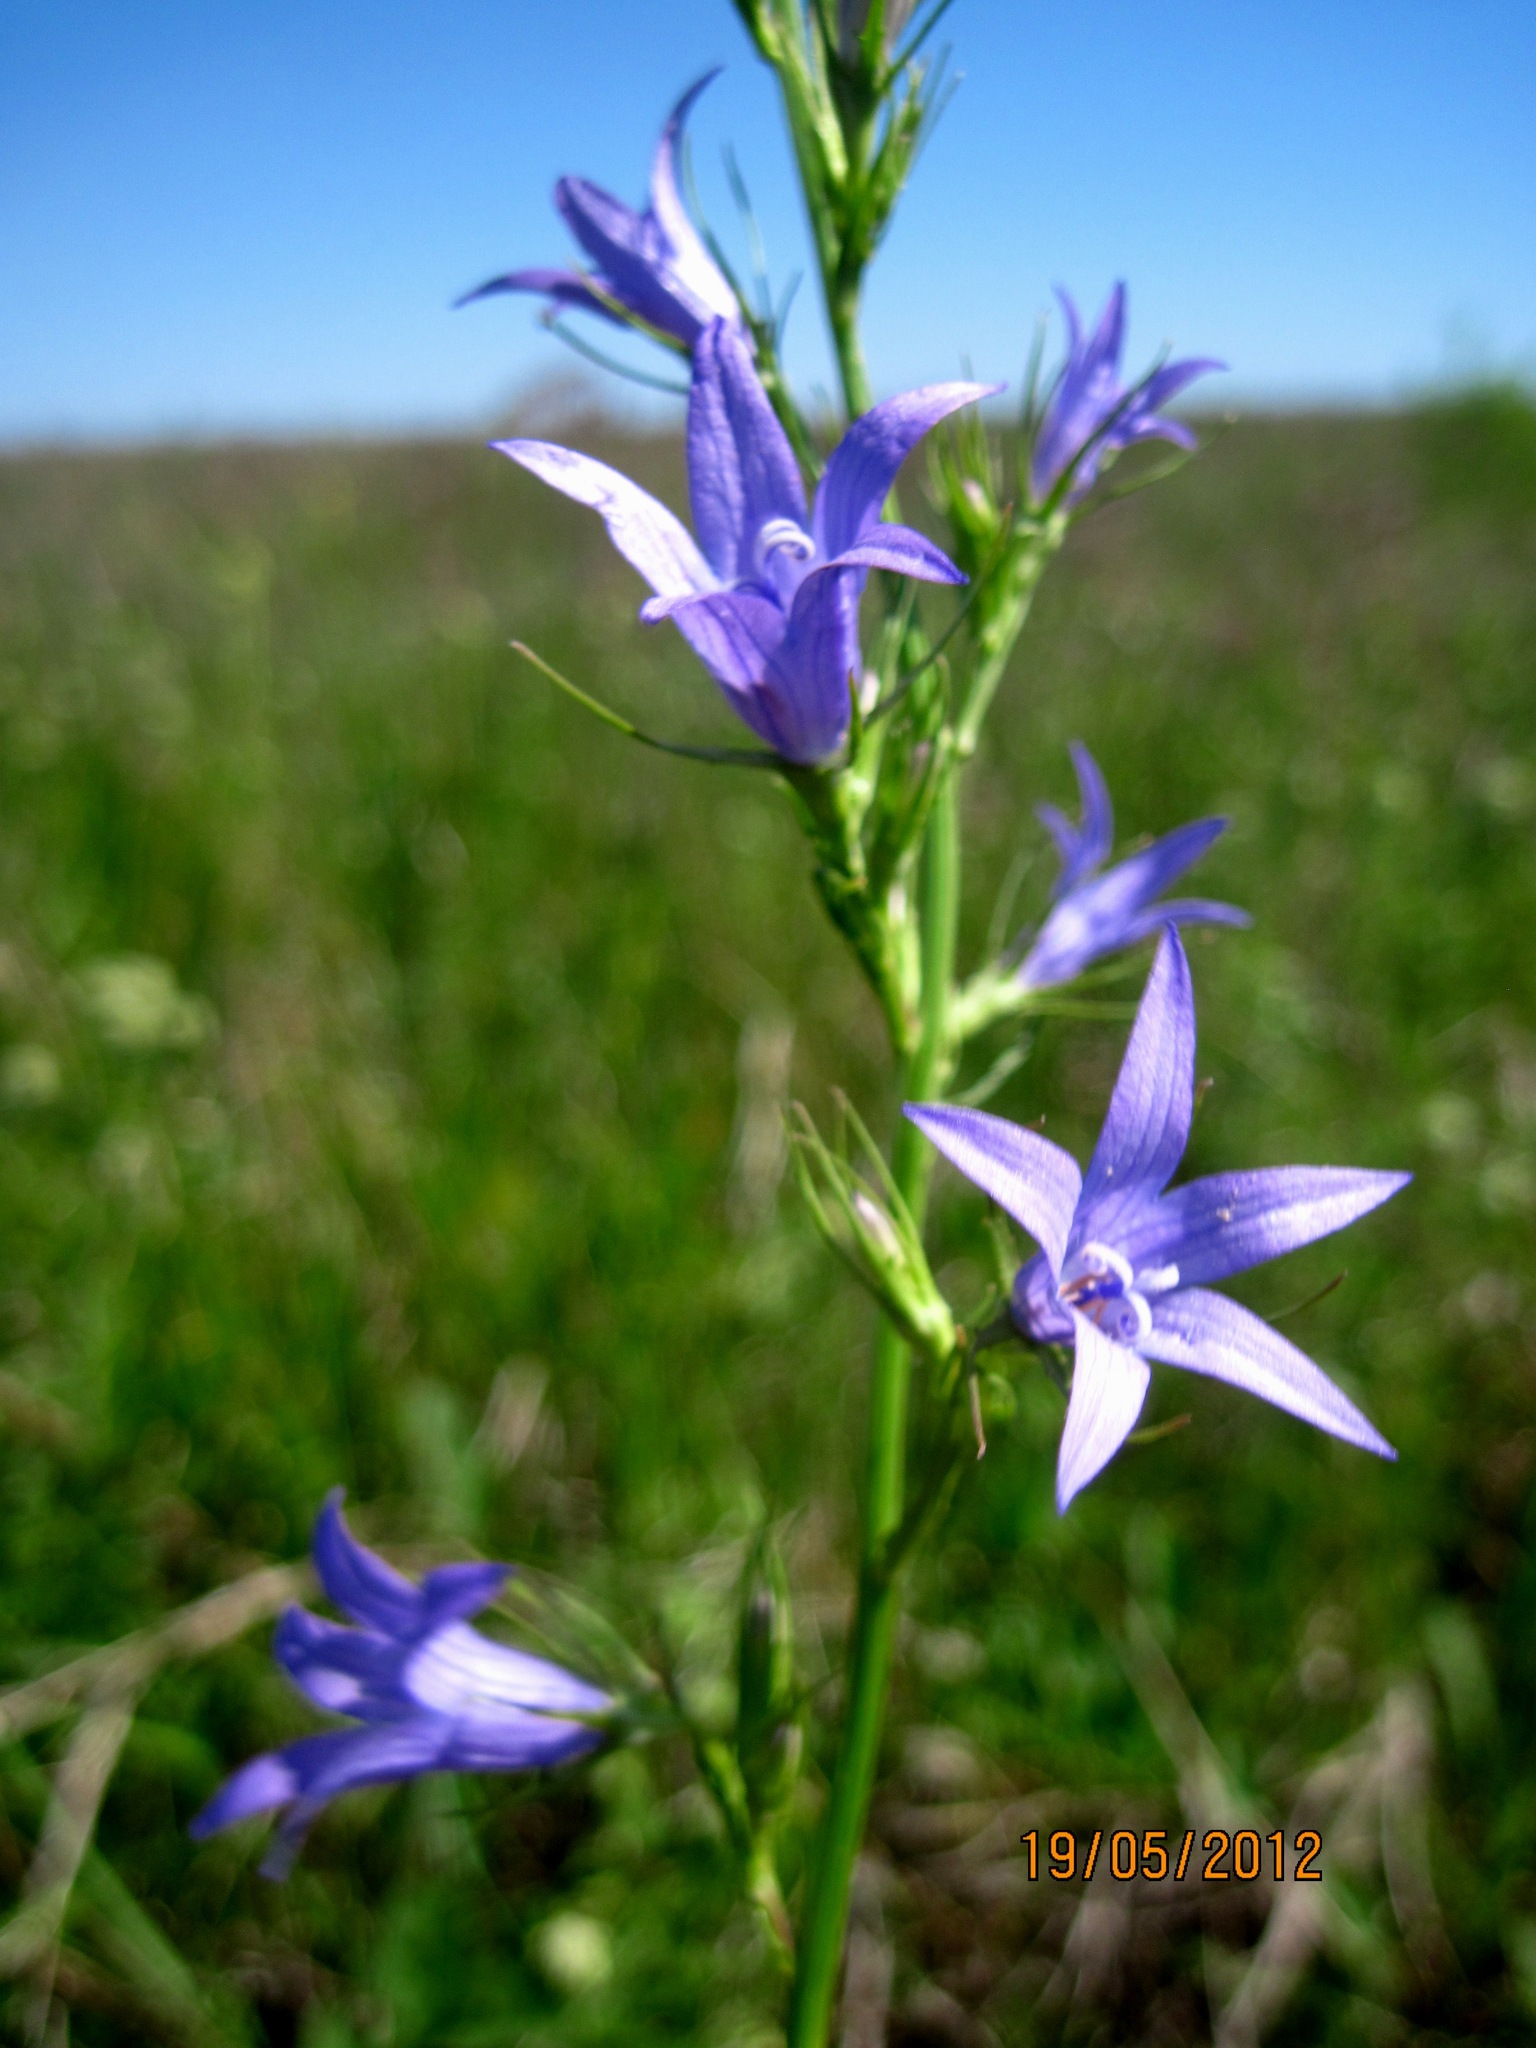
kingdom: Plantae
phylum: Tracheophyta
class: Magnoliopsida
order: Asterales
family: Campanulaceae
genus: Campanula
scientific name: Campanula rapunculus
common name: Rampion bellflower
